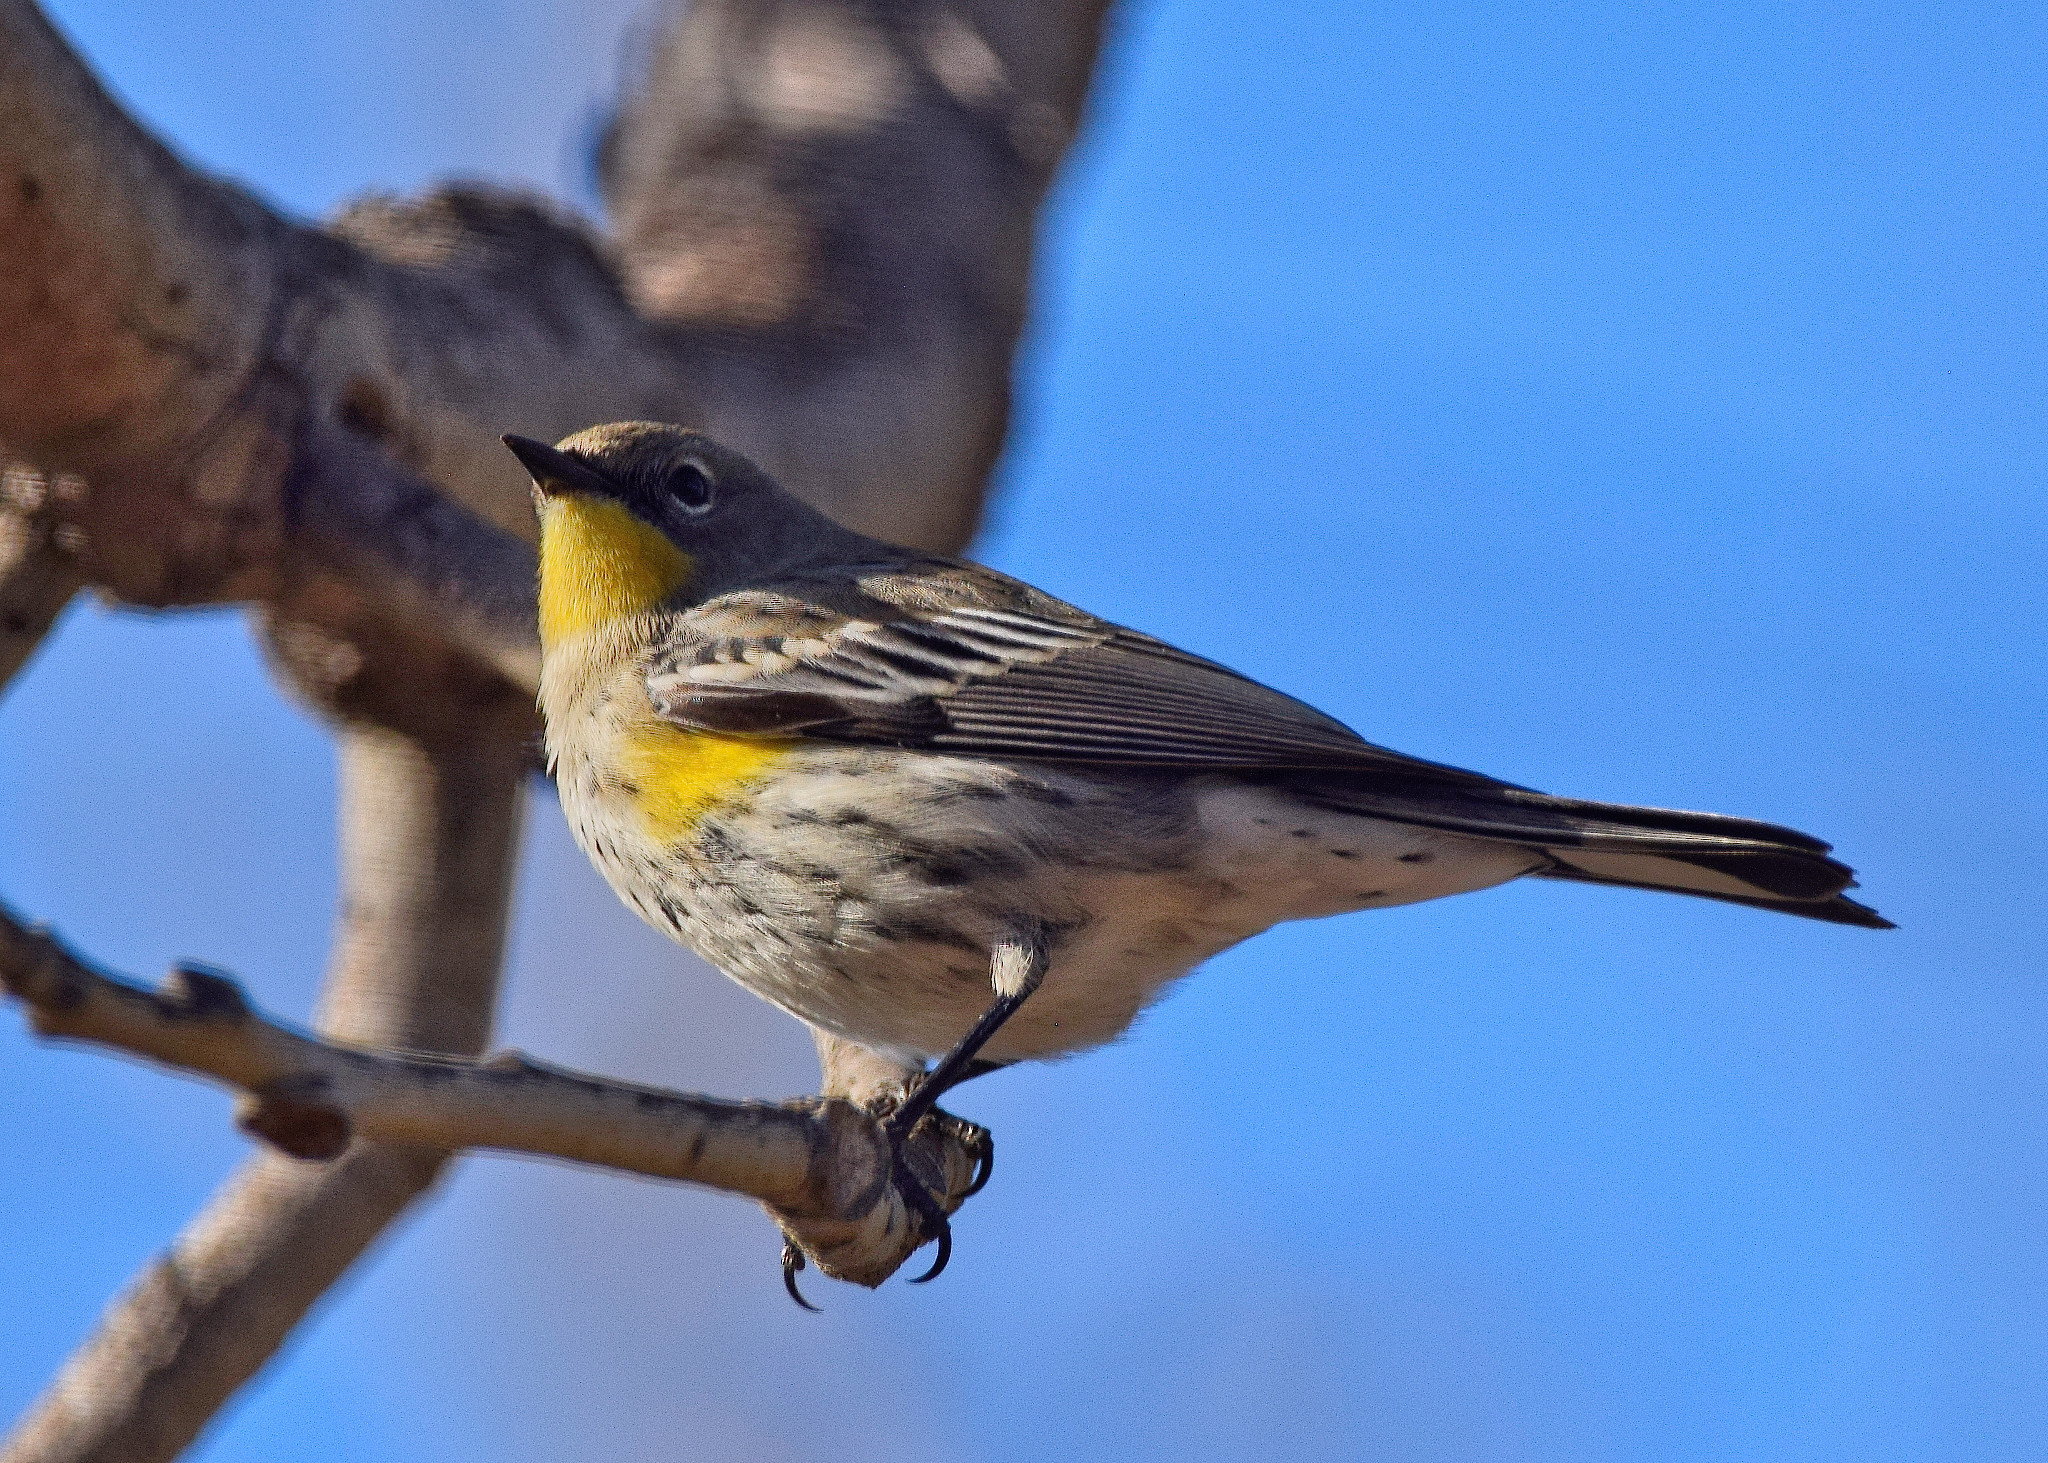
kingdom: Animalia
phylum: Chordata
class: Aves
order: Passeriformes
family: Parulidae
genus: Setophaga
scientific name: Setophaga coronata
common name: Myrtle warbler
